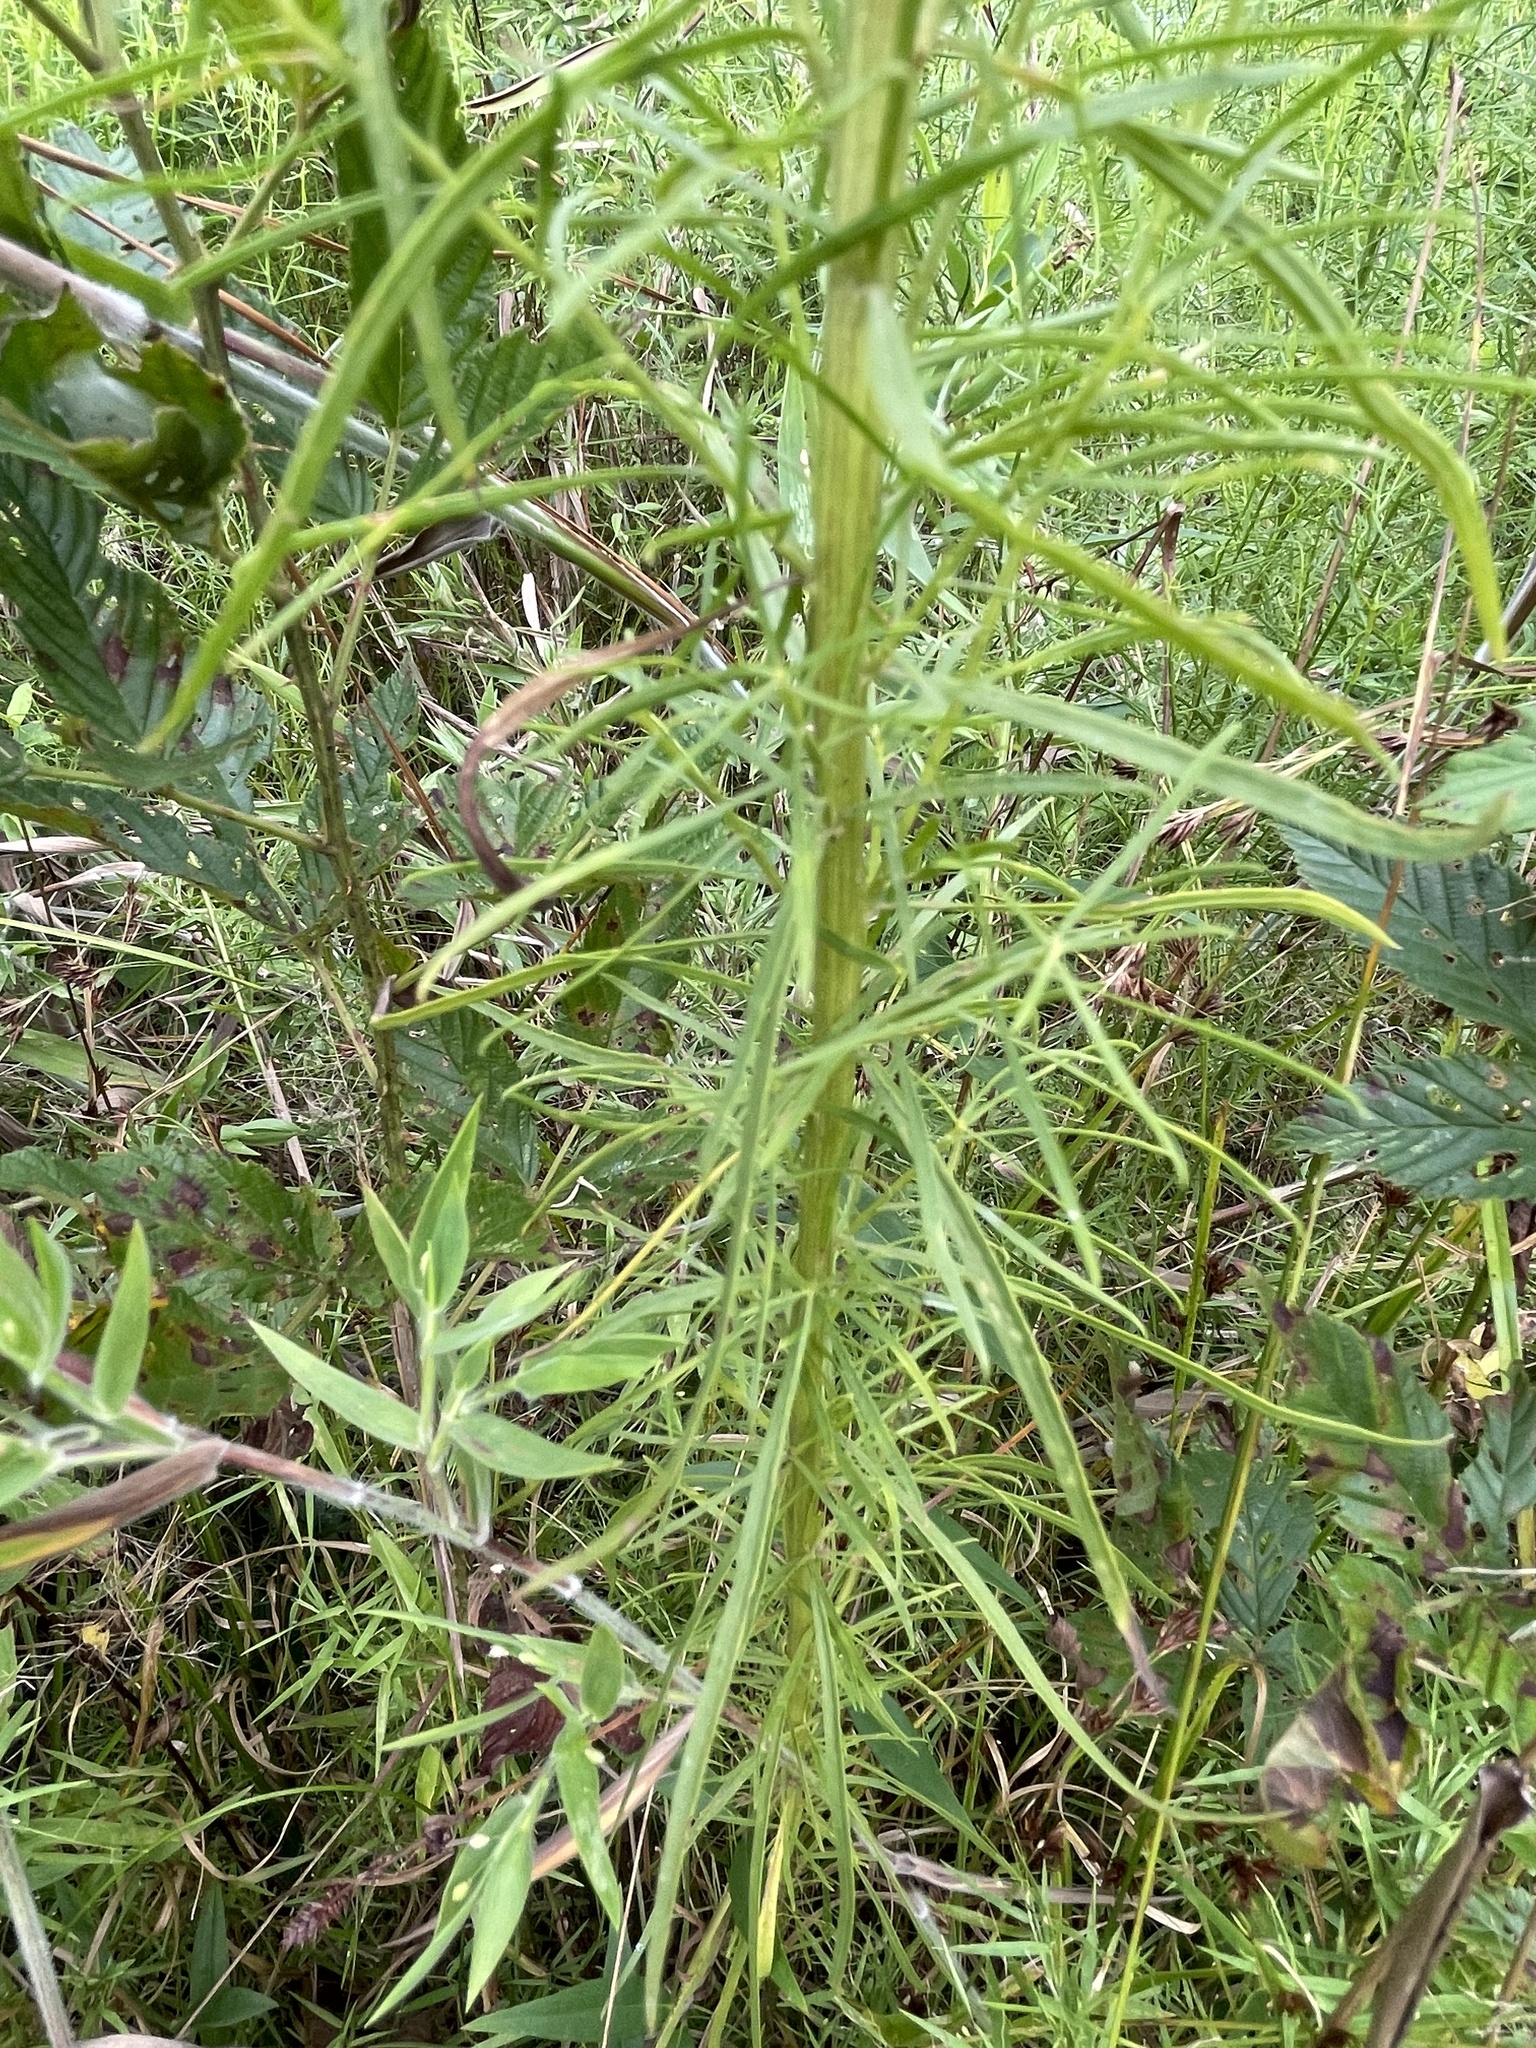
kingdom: Plantae
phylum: Tracheophyta
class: Magnoliopsida
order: Asterales
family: Asteraceae
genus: Euthamia
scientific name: Euthamia caroliniana
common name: Coastal plain goldentop
